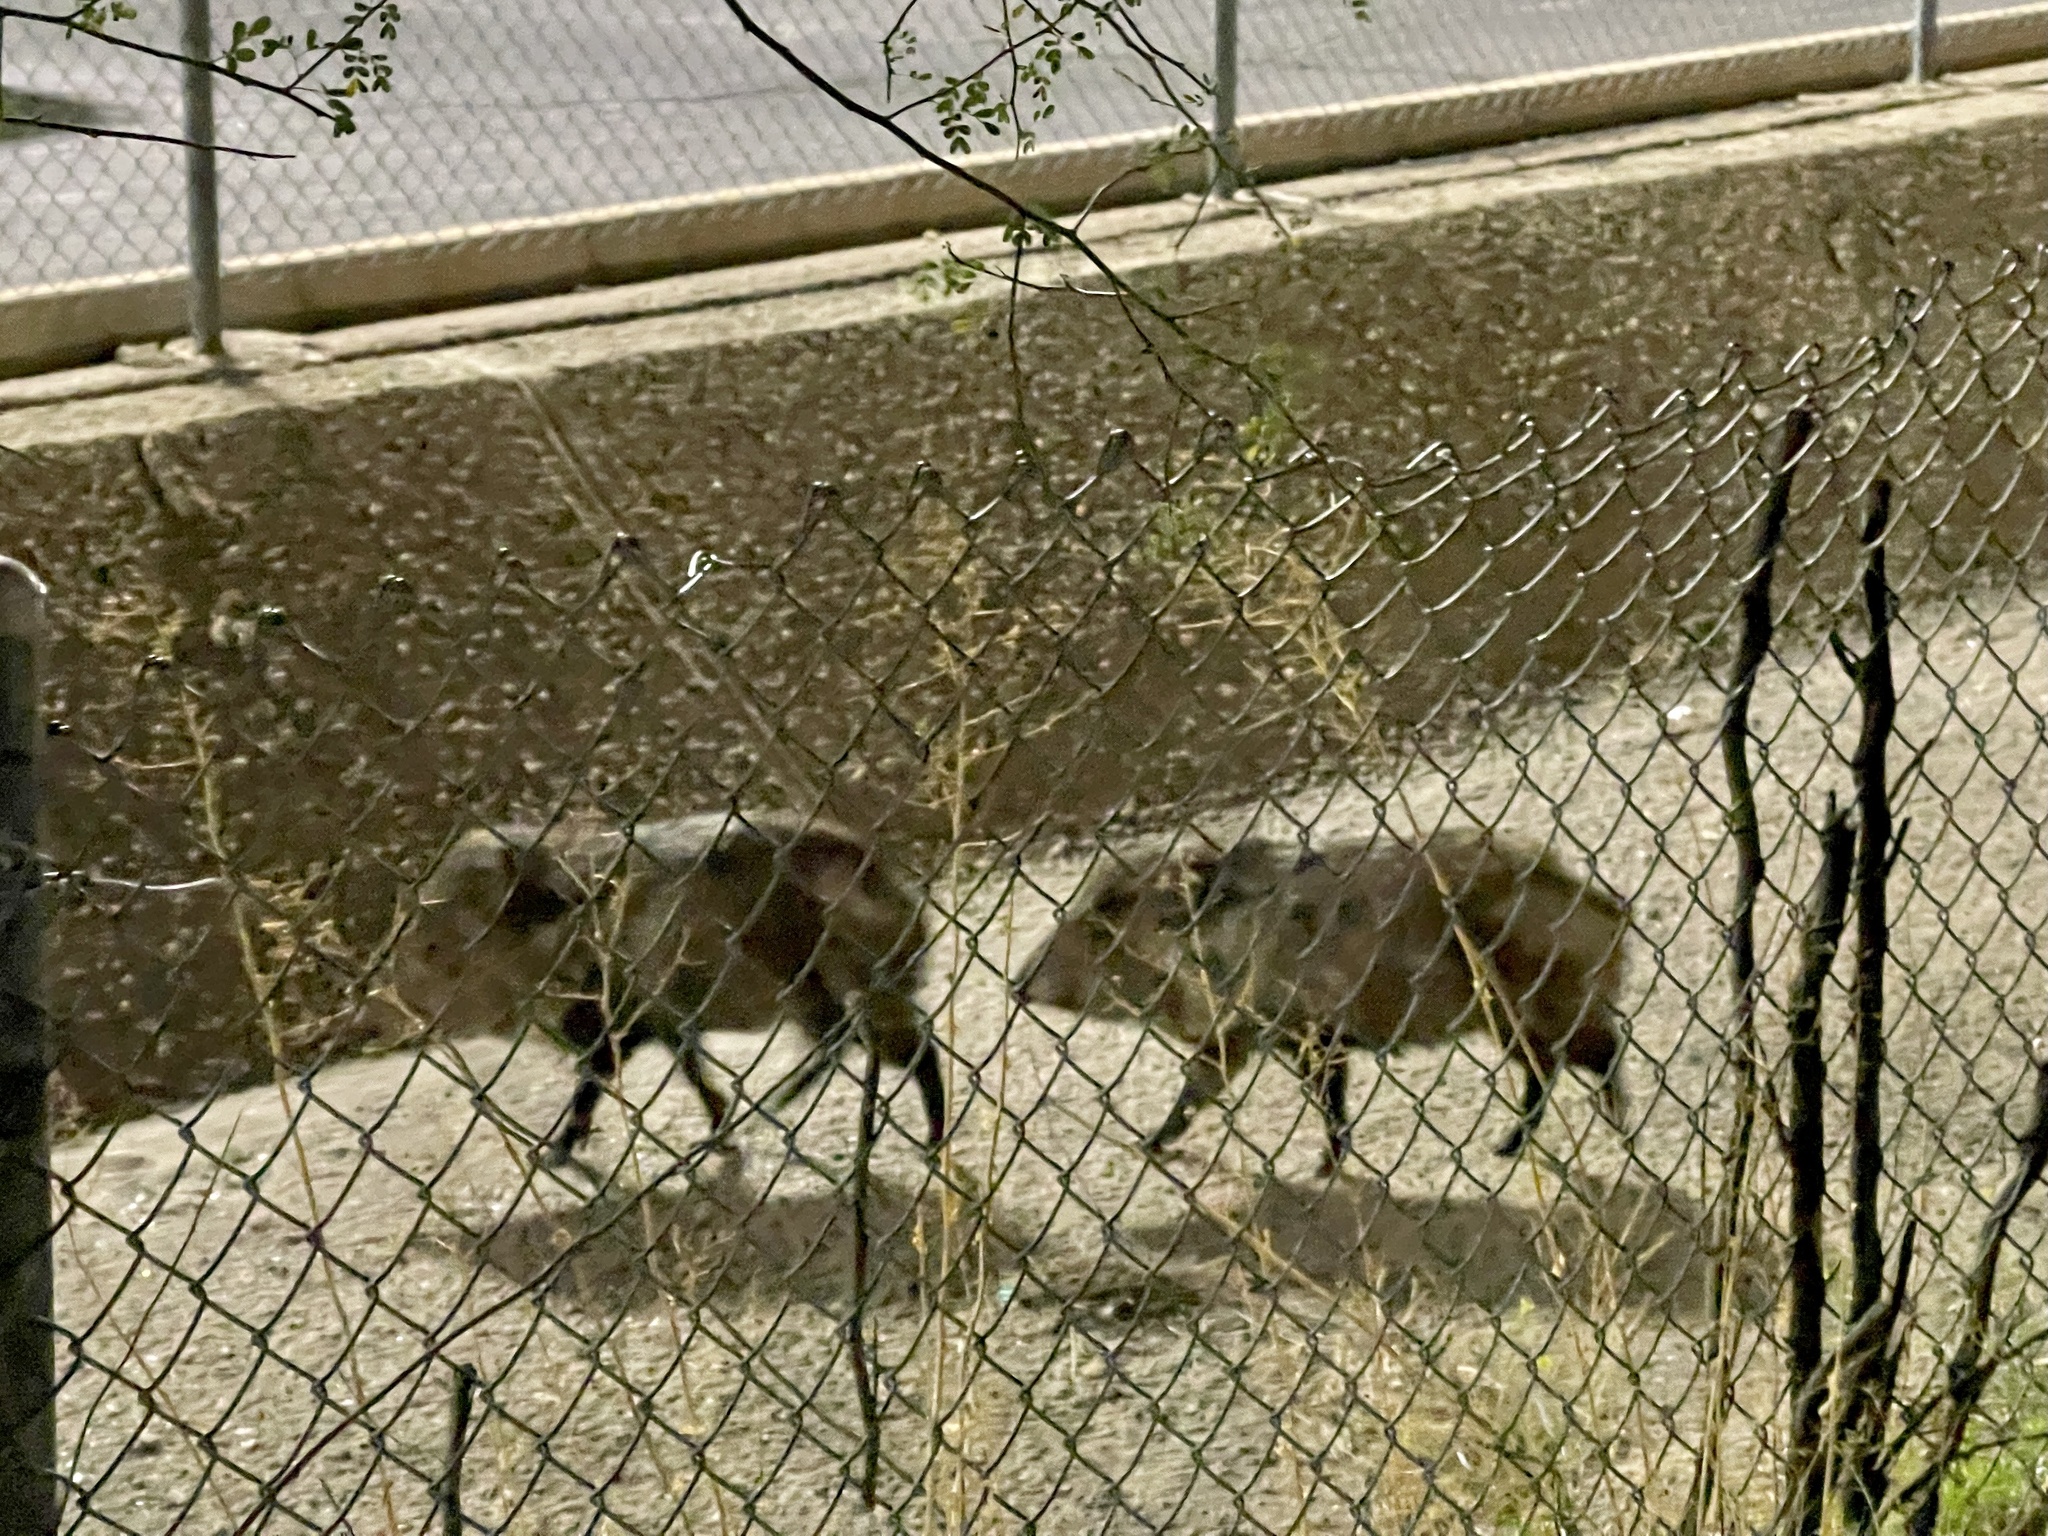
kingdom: Animalia
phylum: Chordata
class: Mammalia
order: Artiodactyla
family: Tayassuidae
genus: Pecari
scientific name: Pecari tajacu
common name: Collared peccary
